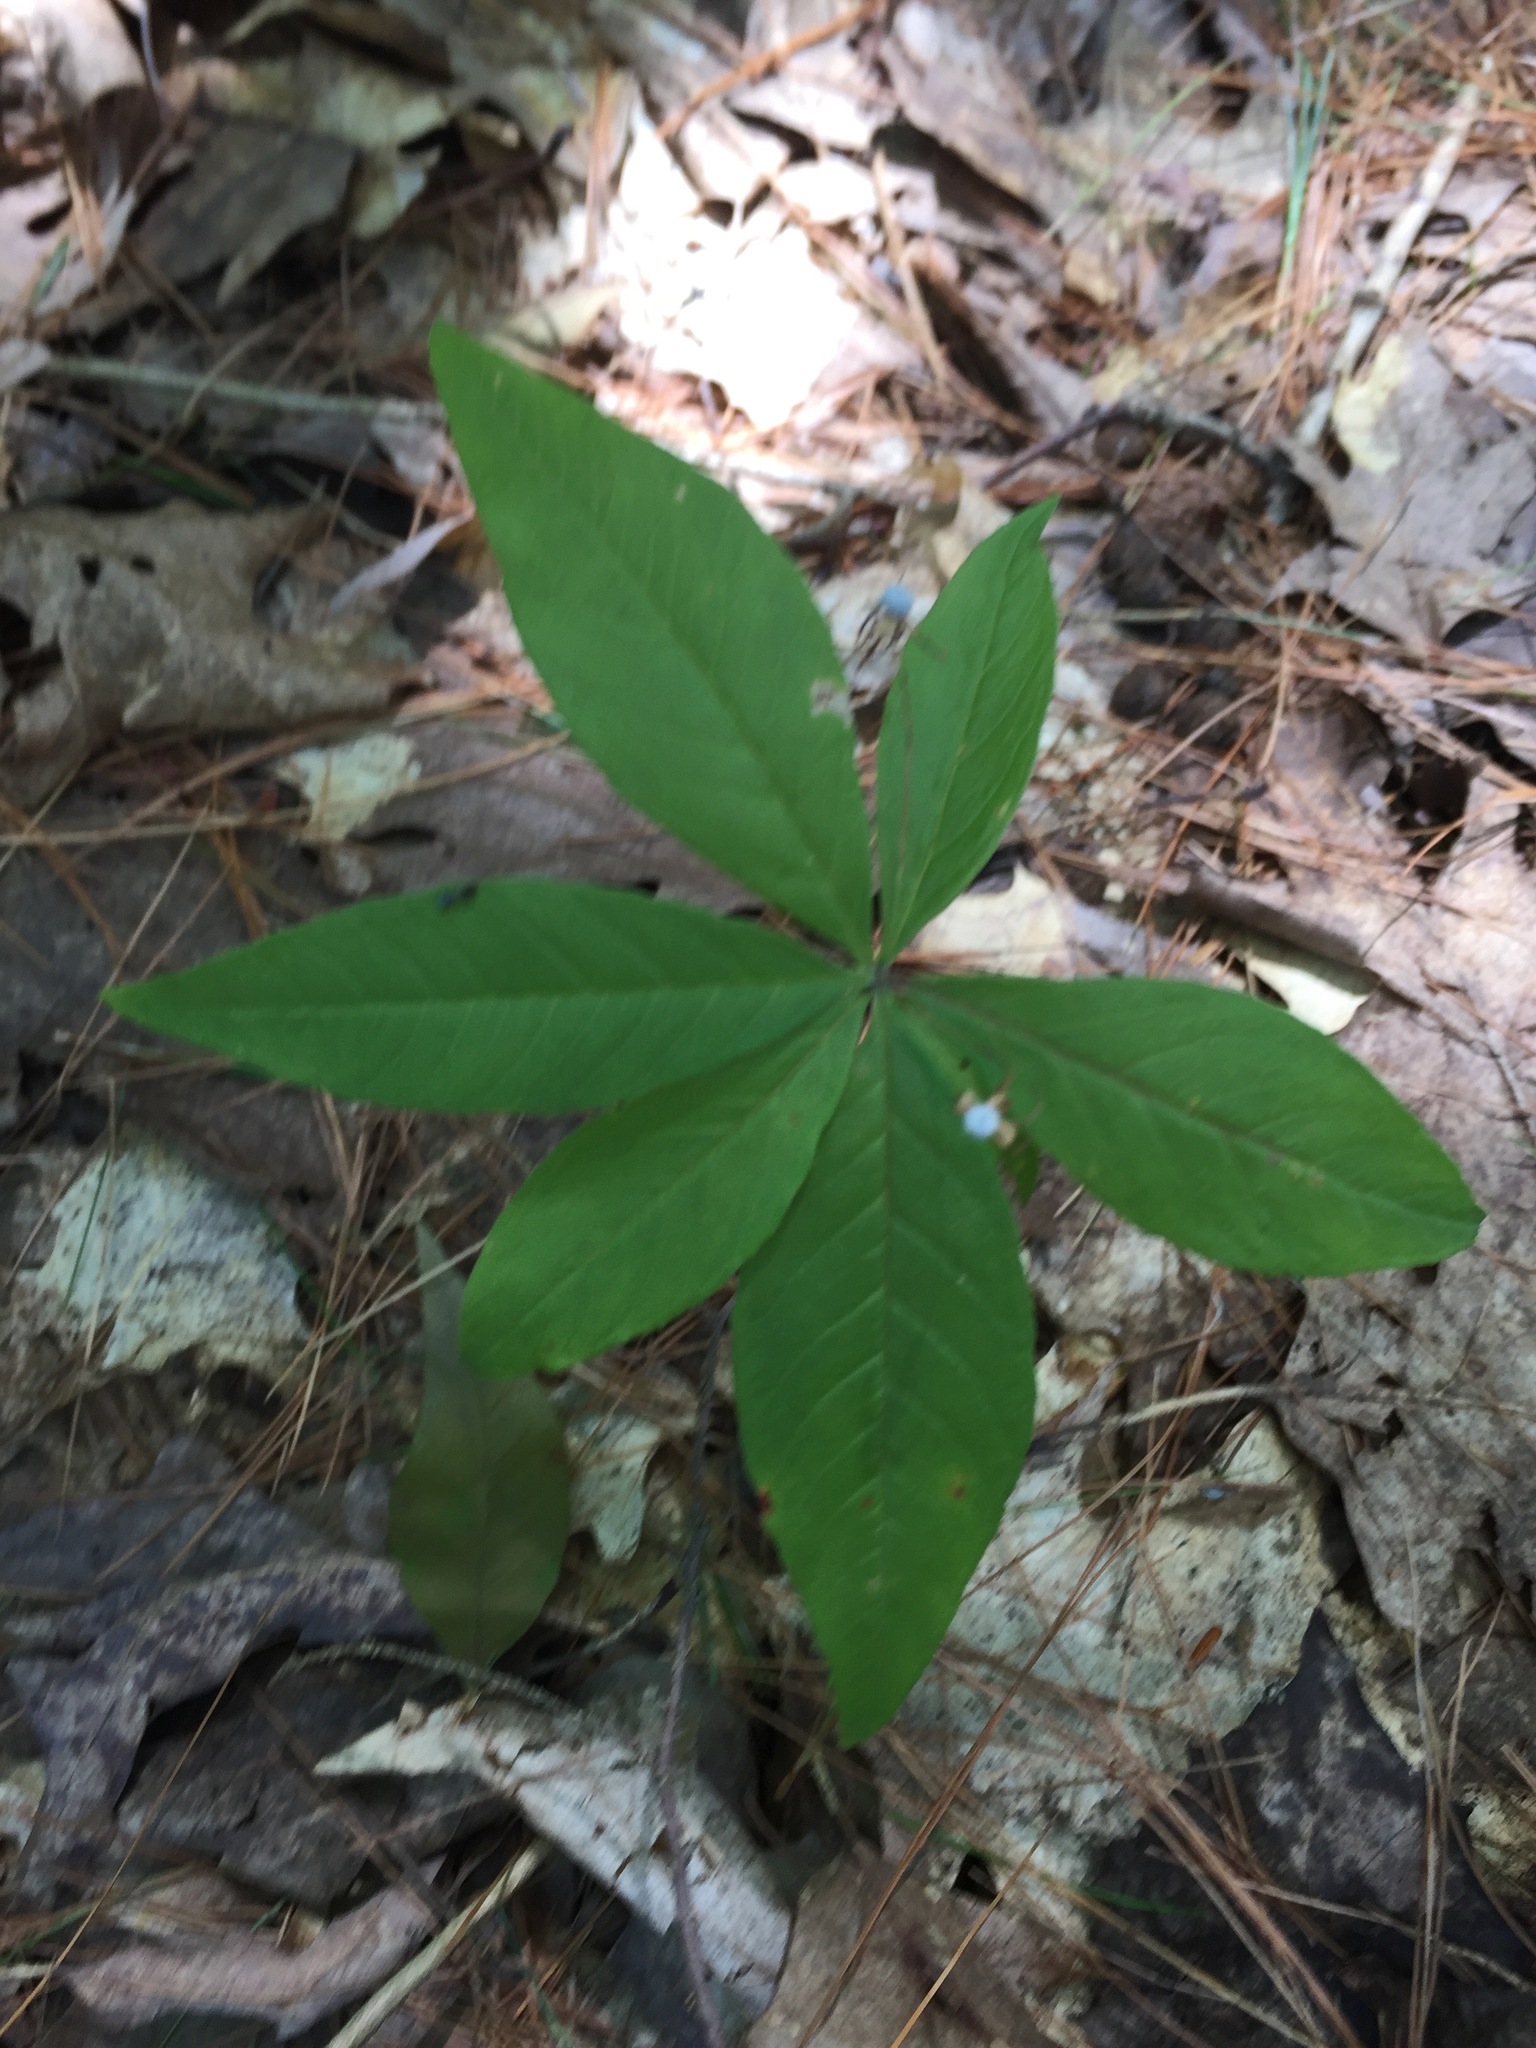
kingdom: Plantae
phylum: Tracheophyta
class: Magnoliopsida
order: Ericales
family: Primulaceae
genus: Lysimachia
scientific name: Lysimachia borealis
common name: American starflower
